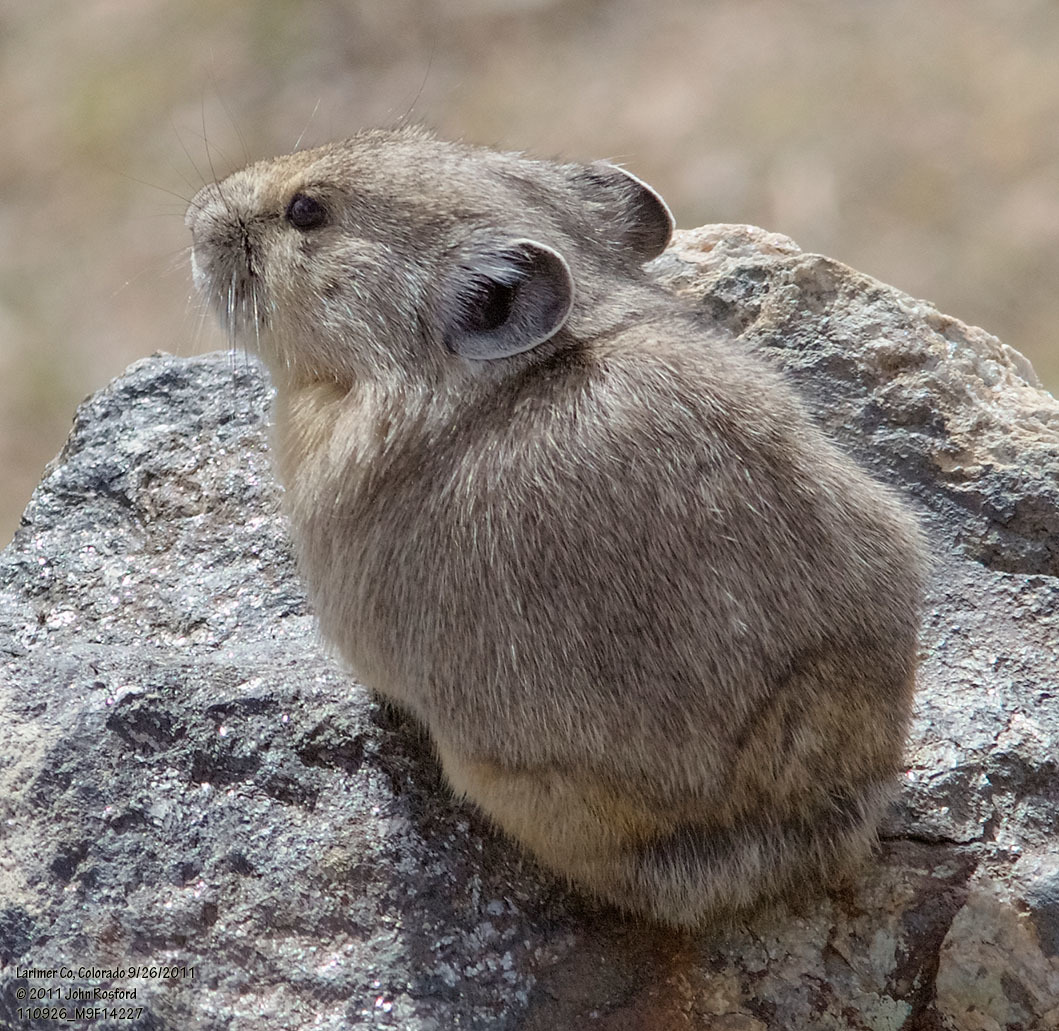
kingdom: Animalia
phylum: Chordata
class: Mammalia
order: Lagomorpha
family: Ochotonidae
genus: Ochotona
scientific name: Ochotona princeps
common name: American pika
